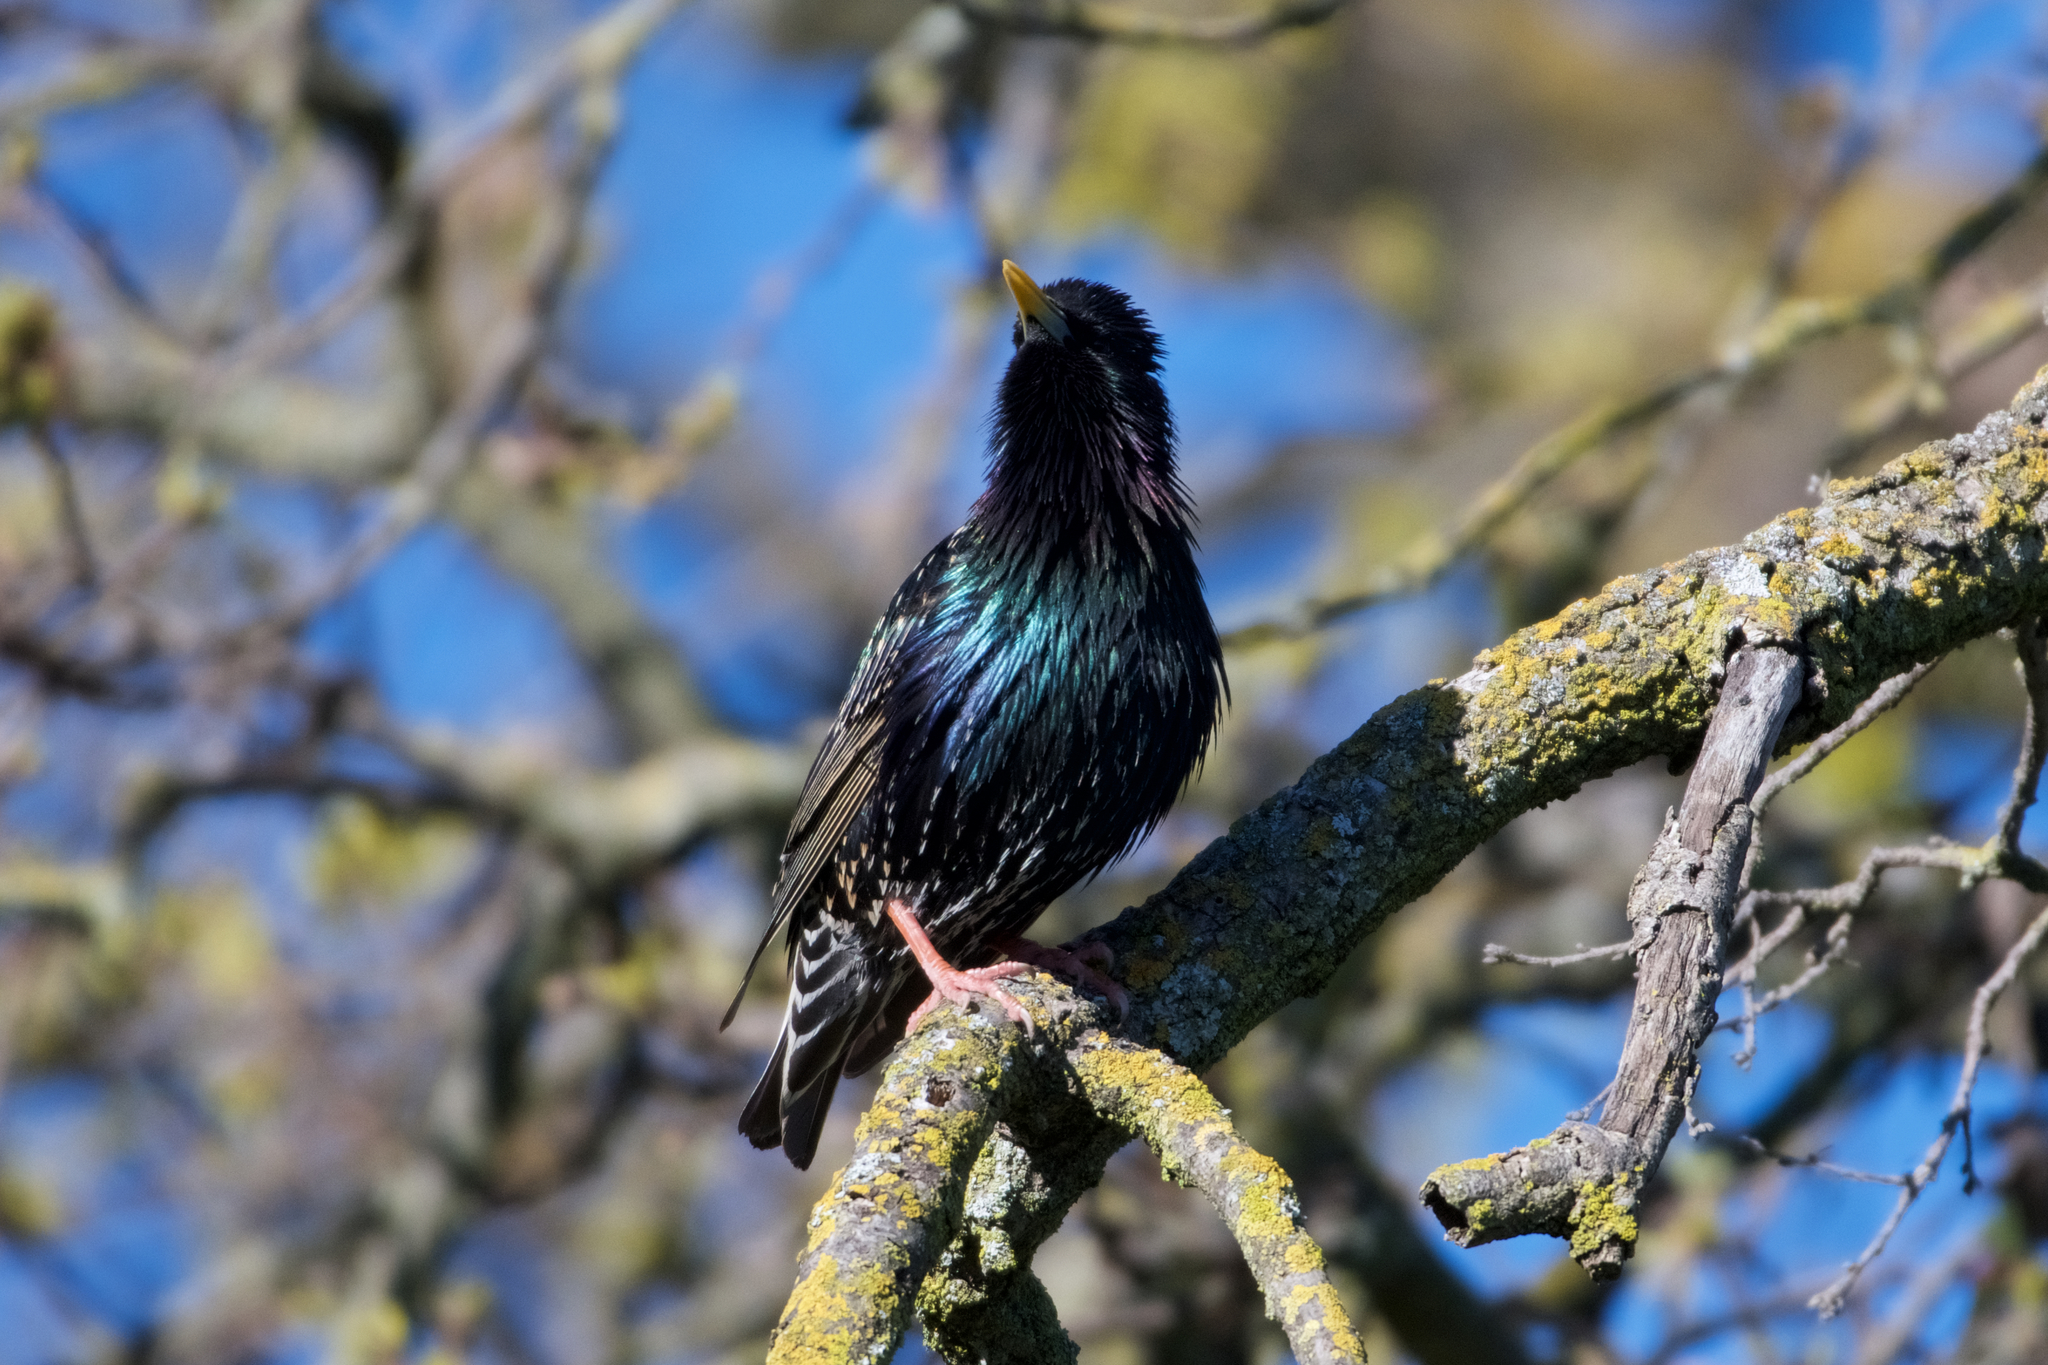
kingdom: Animalia
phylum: Chordata
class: Aves
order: Passeriformes
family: Sturnidae
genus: Sturnus
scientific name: Sturnus vulgaris
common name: Common starling
